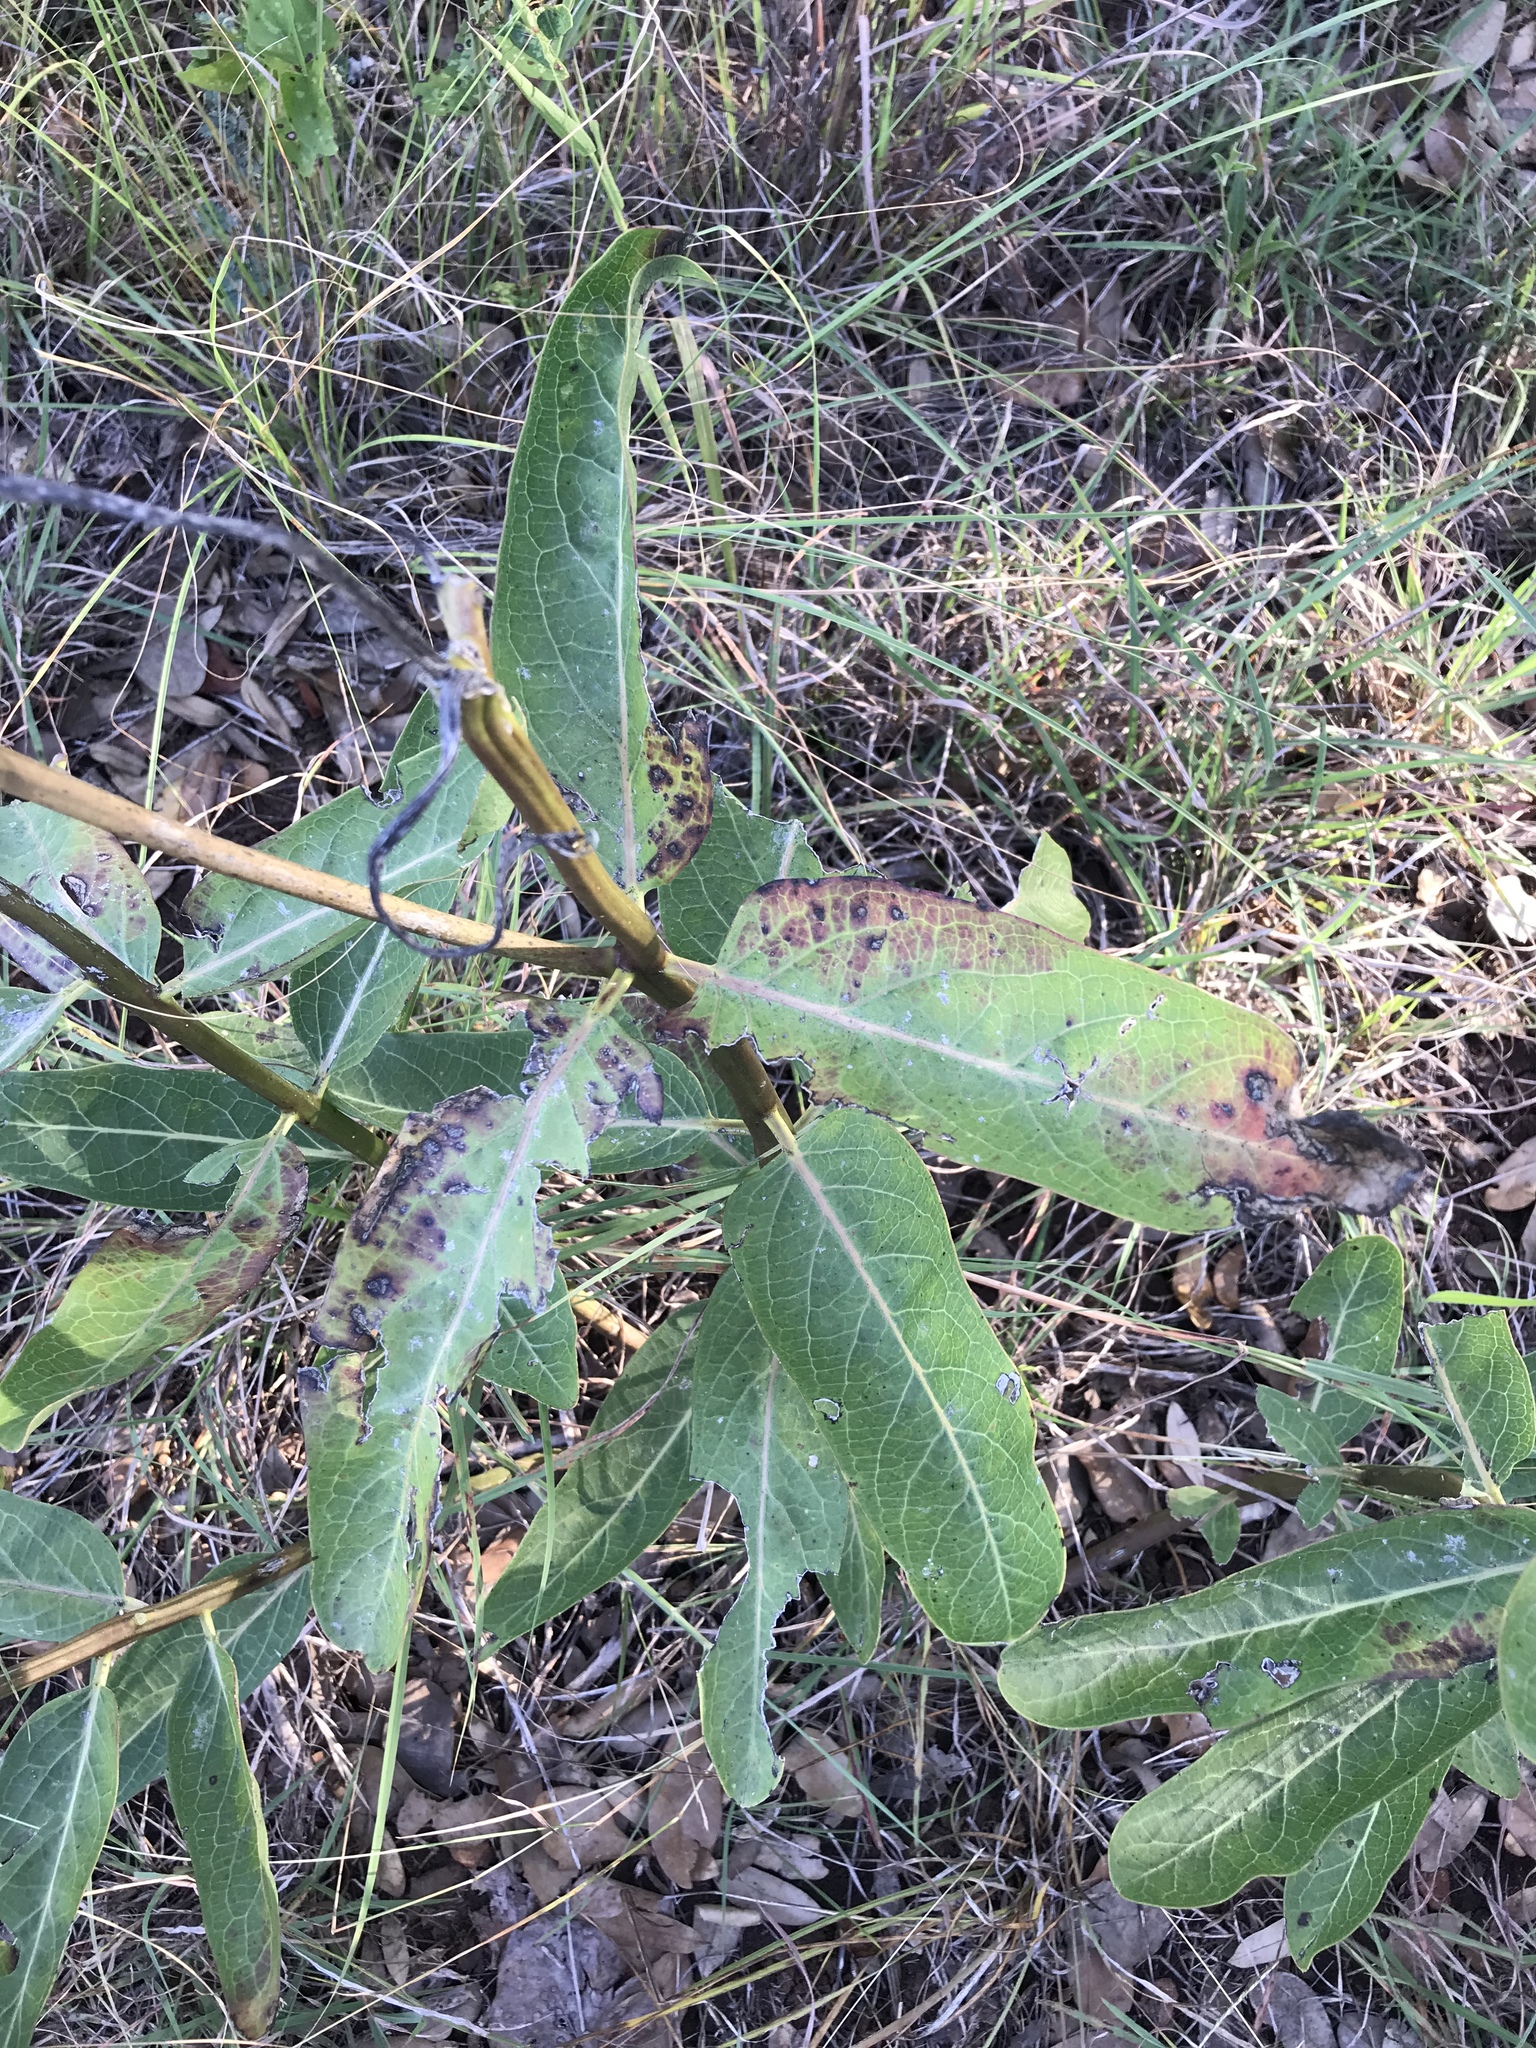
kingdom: Plantae
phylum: Tracheophyta
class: Magnoliopsida
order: Gentianales
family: Apocynaceae
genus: Asclepias
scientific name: Asclepias viridis
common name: Antelope-horns
